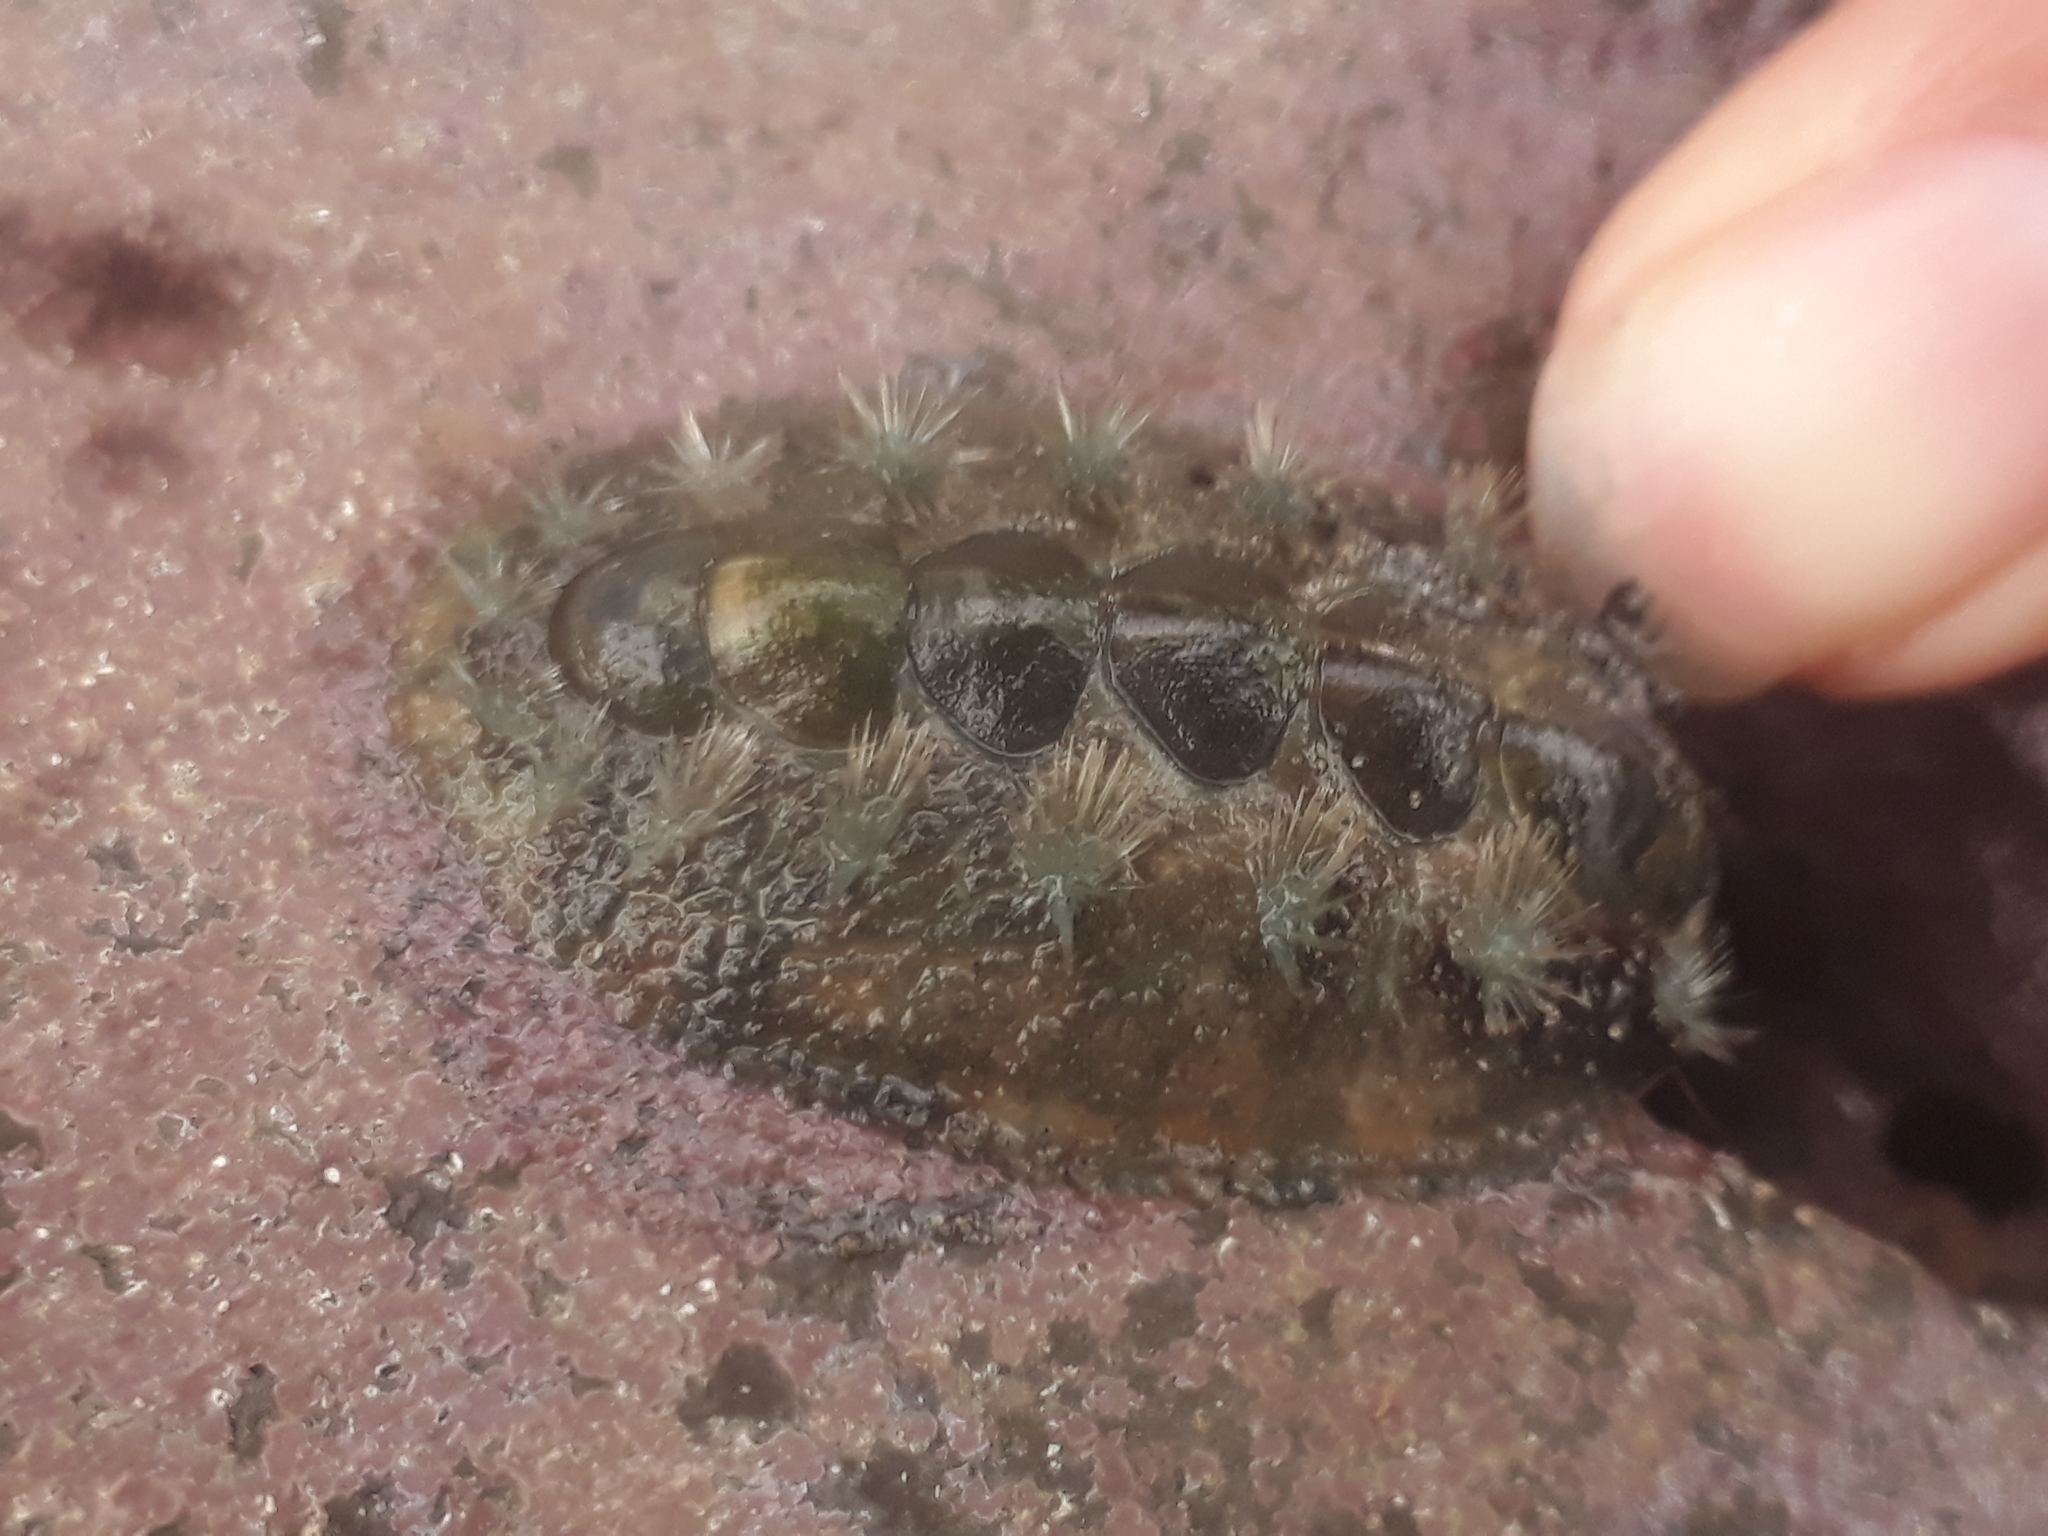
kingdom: Animalia
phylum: Mollusca
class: Polyplacophora
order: Chitonida
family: Acanthochitonidae
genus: Acanthochitona
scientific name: Acanthochitona hirudiniformis
